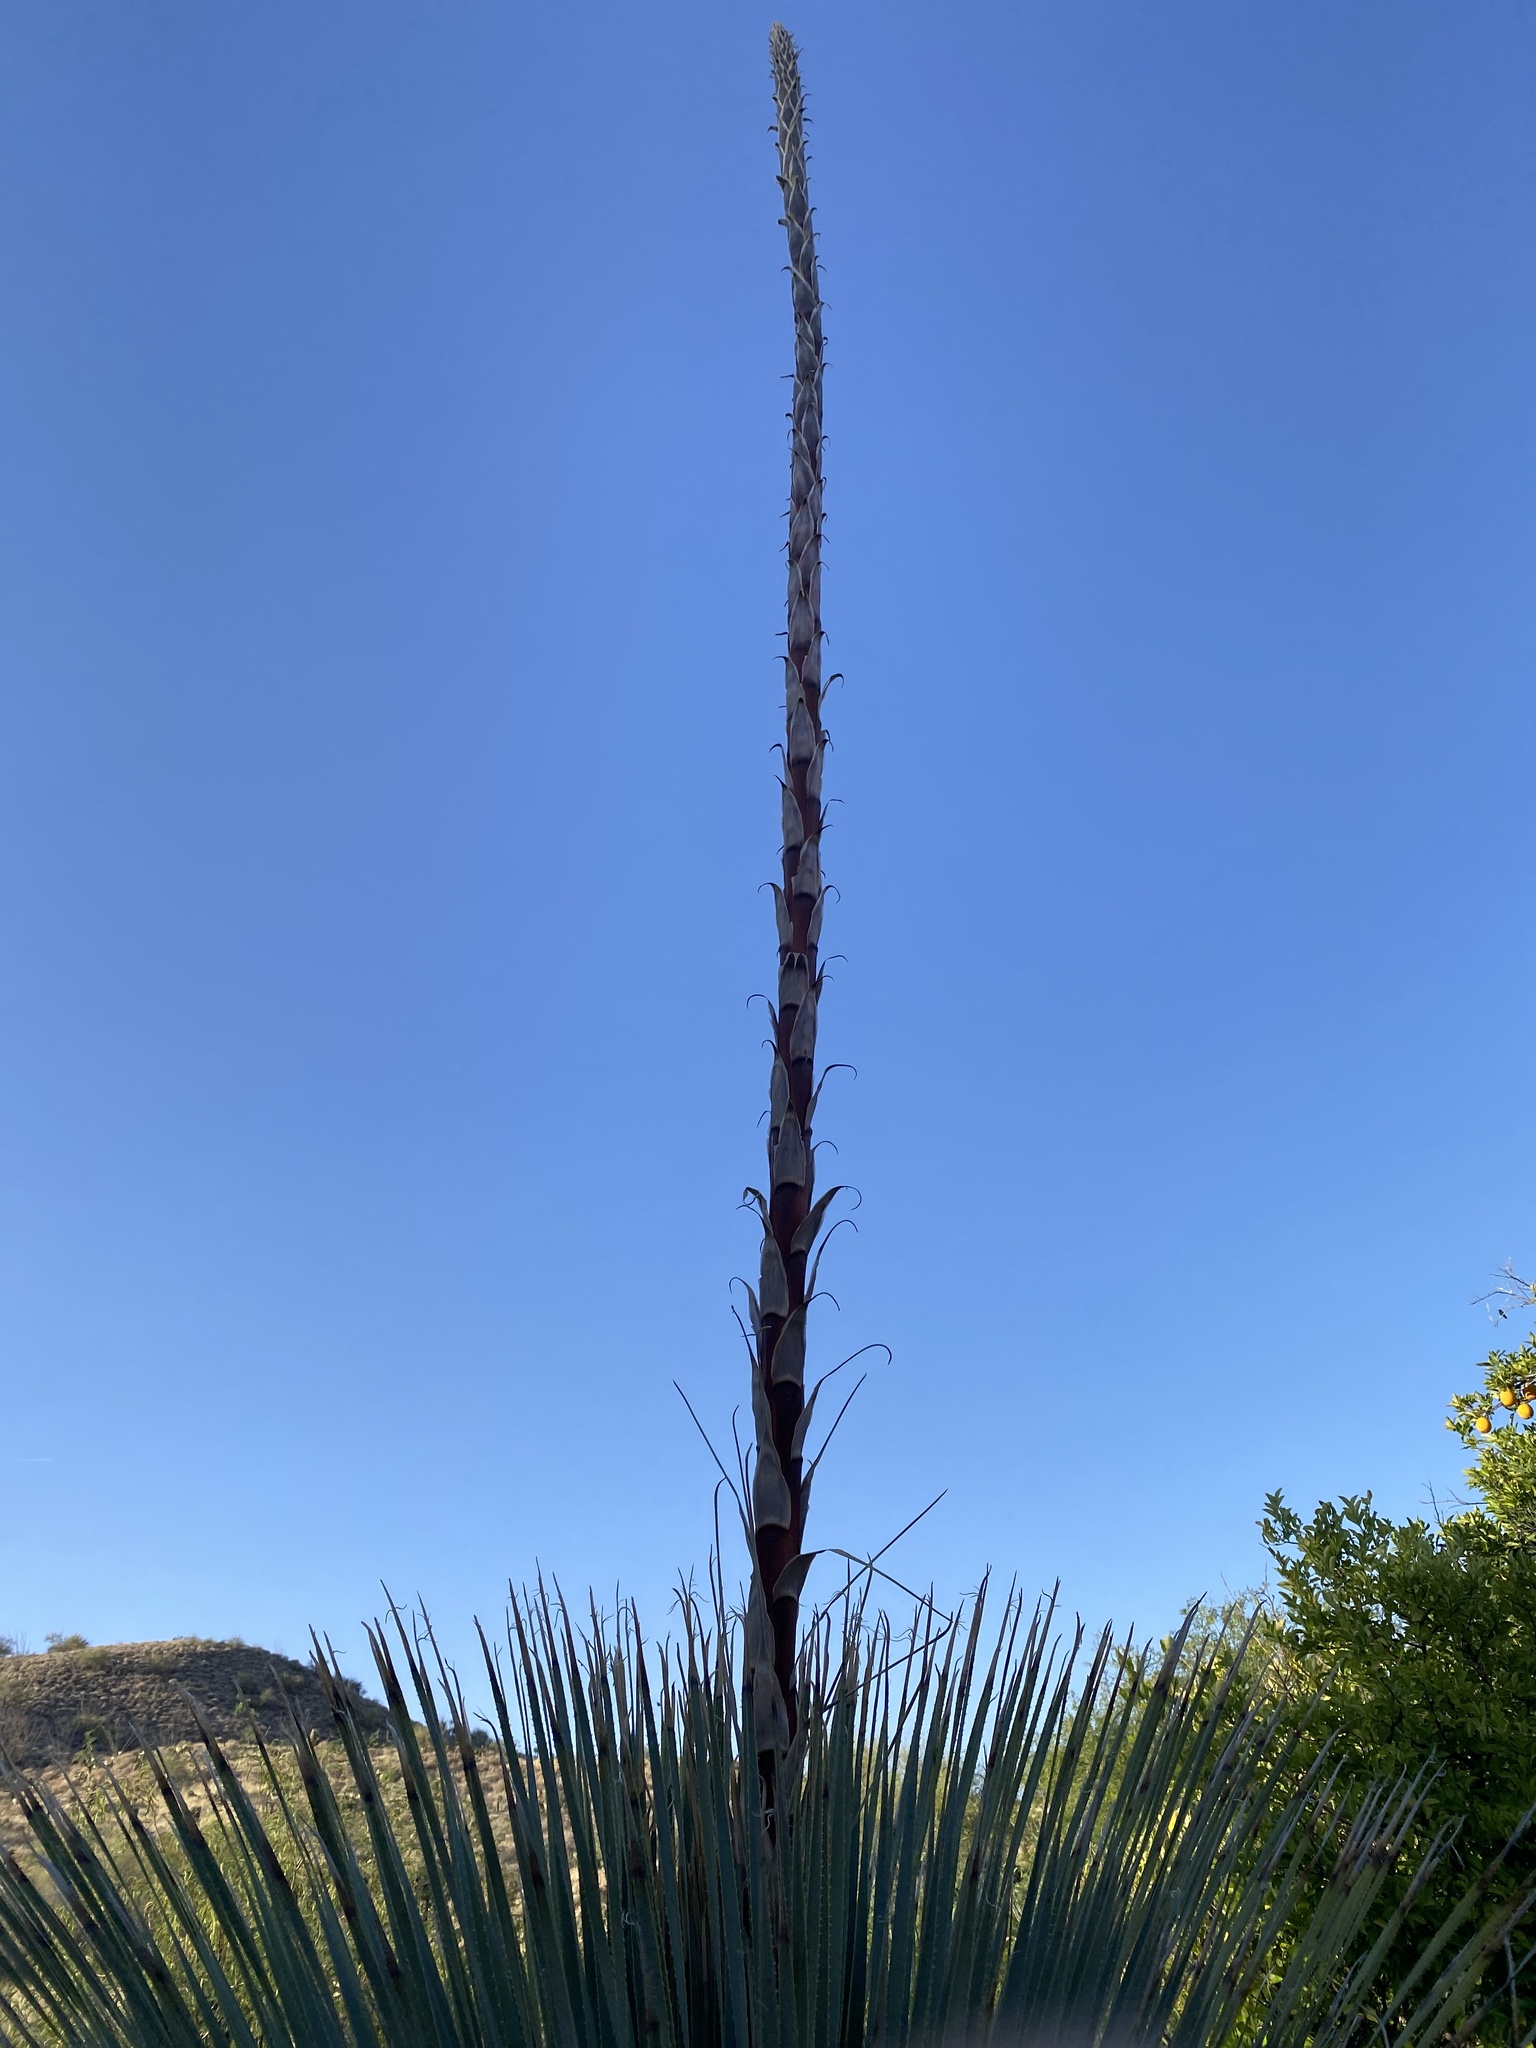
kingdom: Plantae
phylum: Tracheophyta
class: Liliopsida
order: Asparagales
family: Asparagaceae
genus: Dasylirion
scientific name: Dasylirion wheeleri
